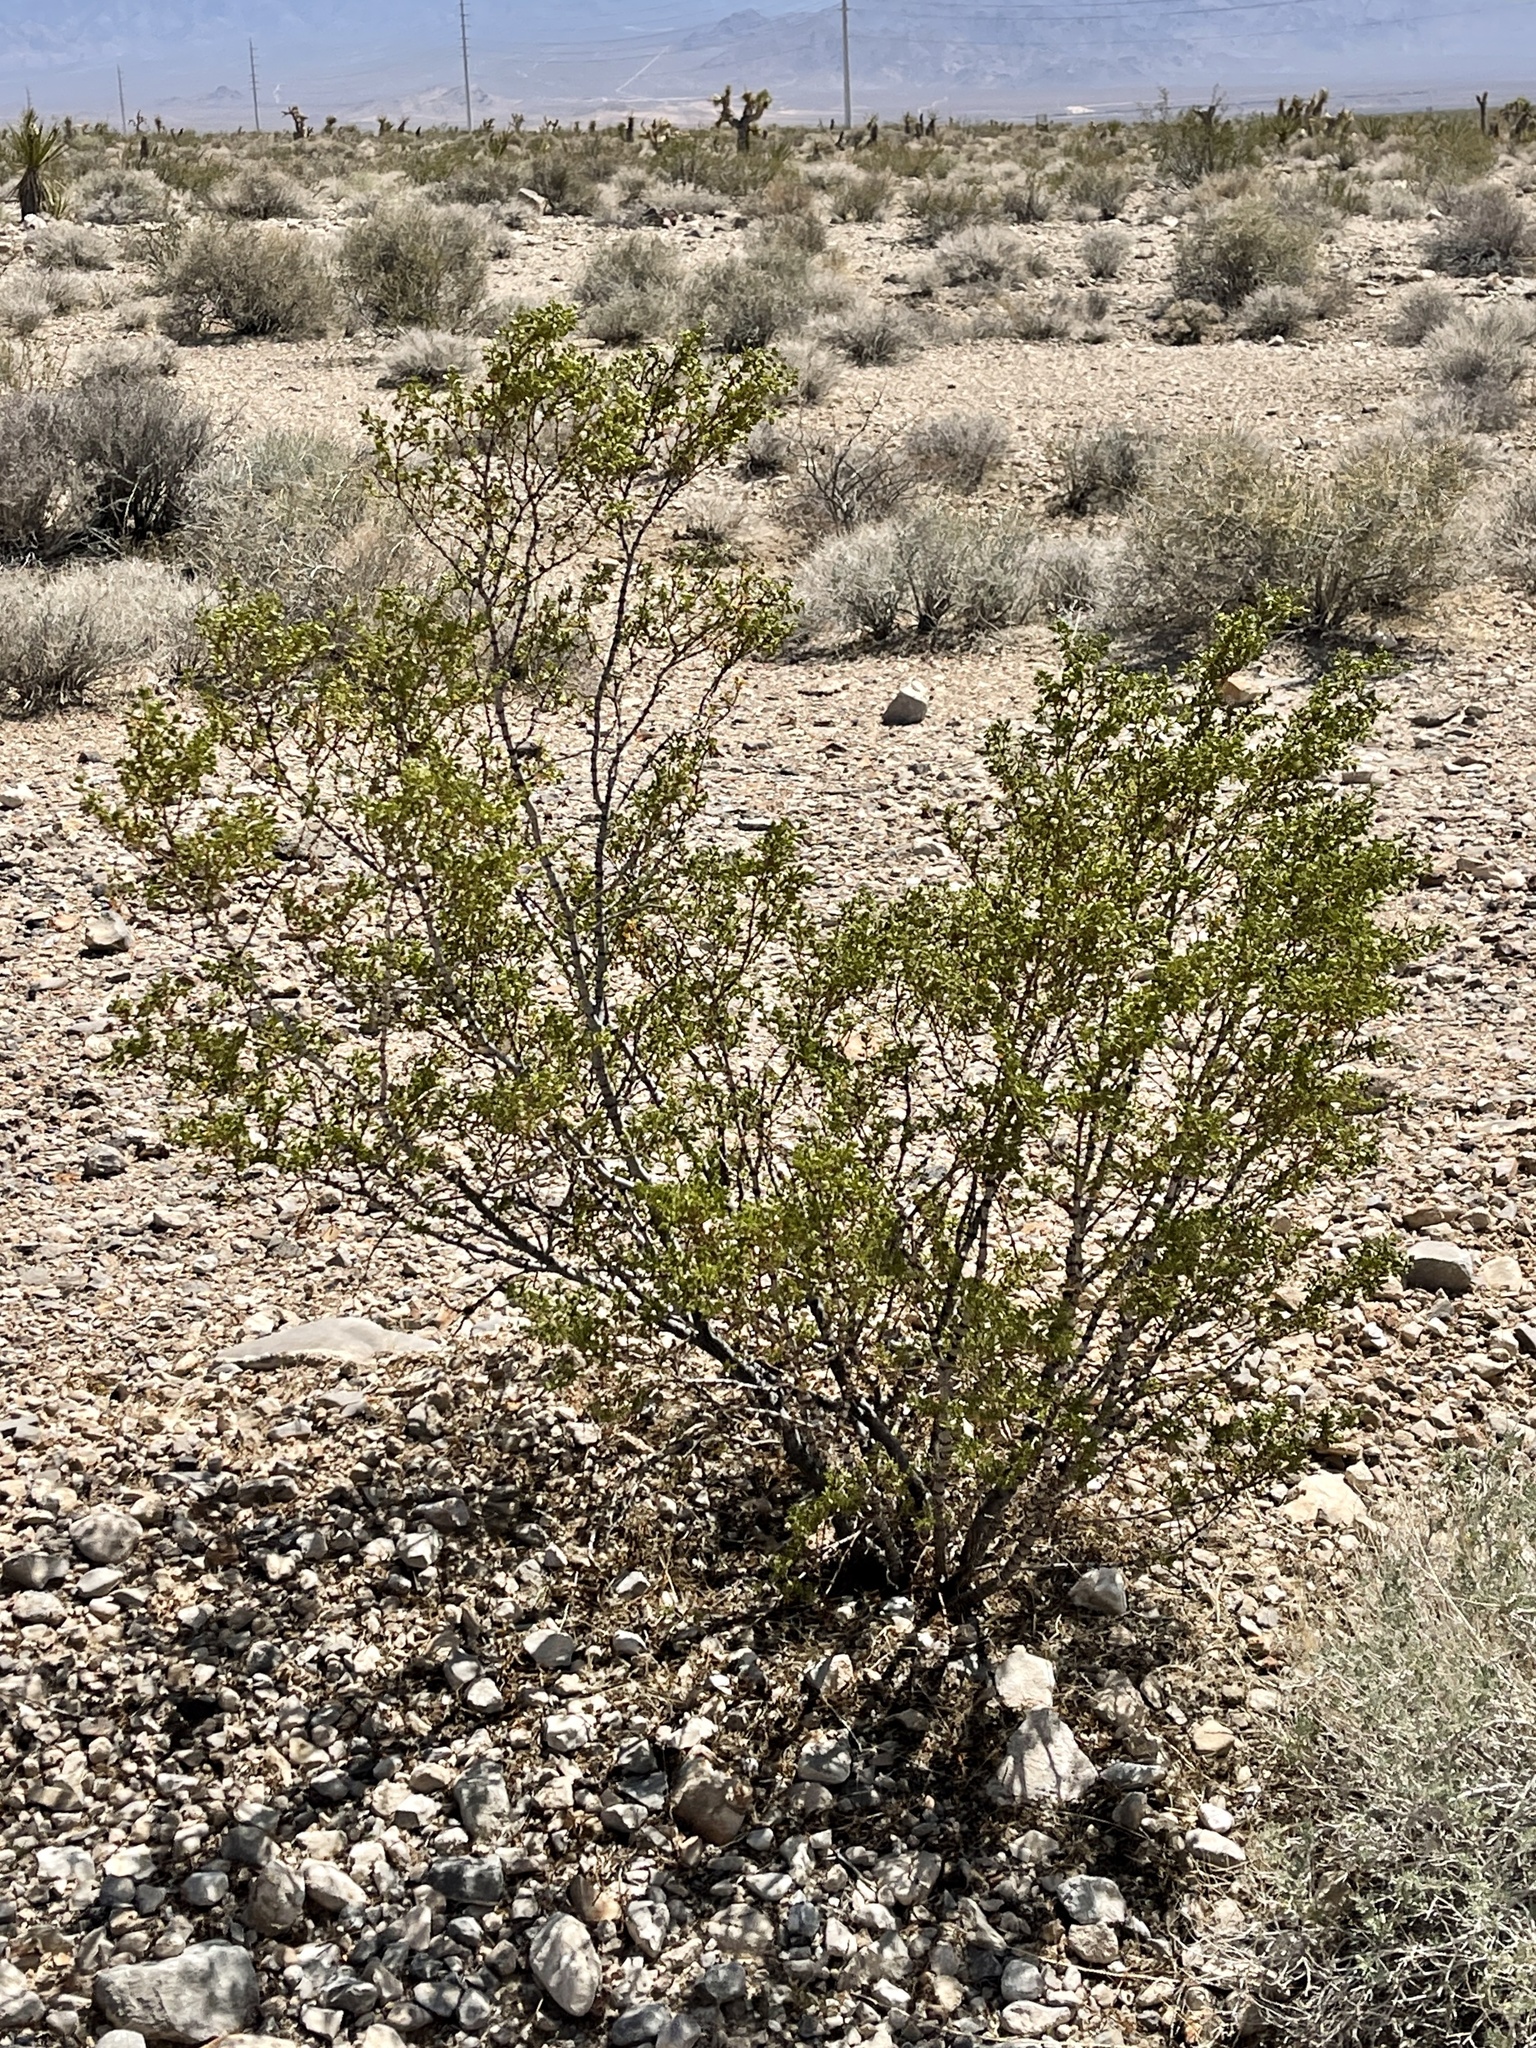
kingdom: Plantae
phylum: Tracheophyta
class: Magnoliopsida
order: Zygophyllales
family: Zygophyllaceae
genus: Larrea
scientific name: Larrea tridentata
